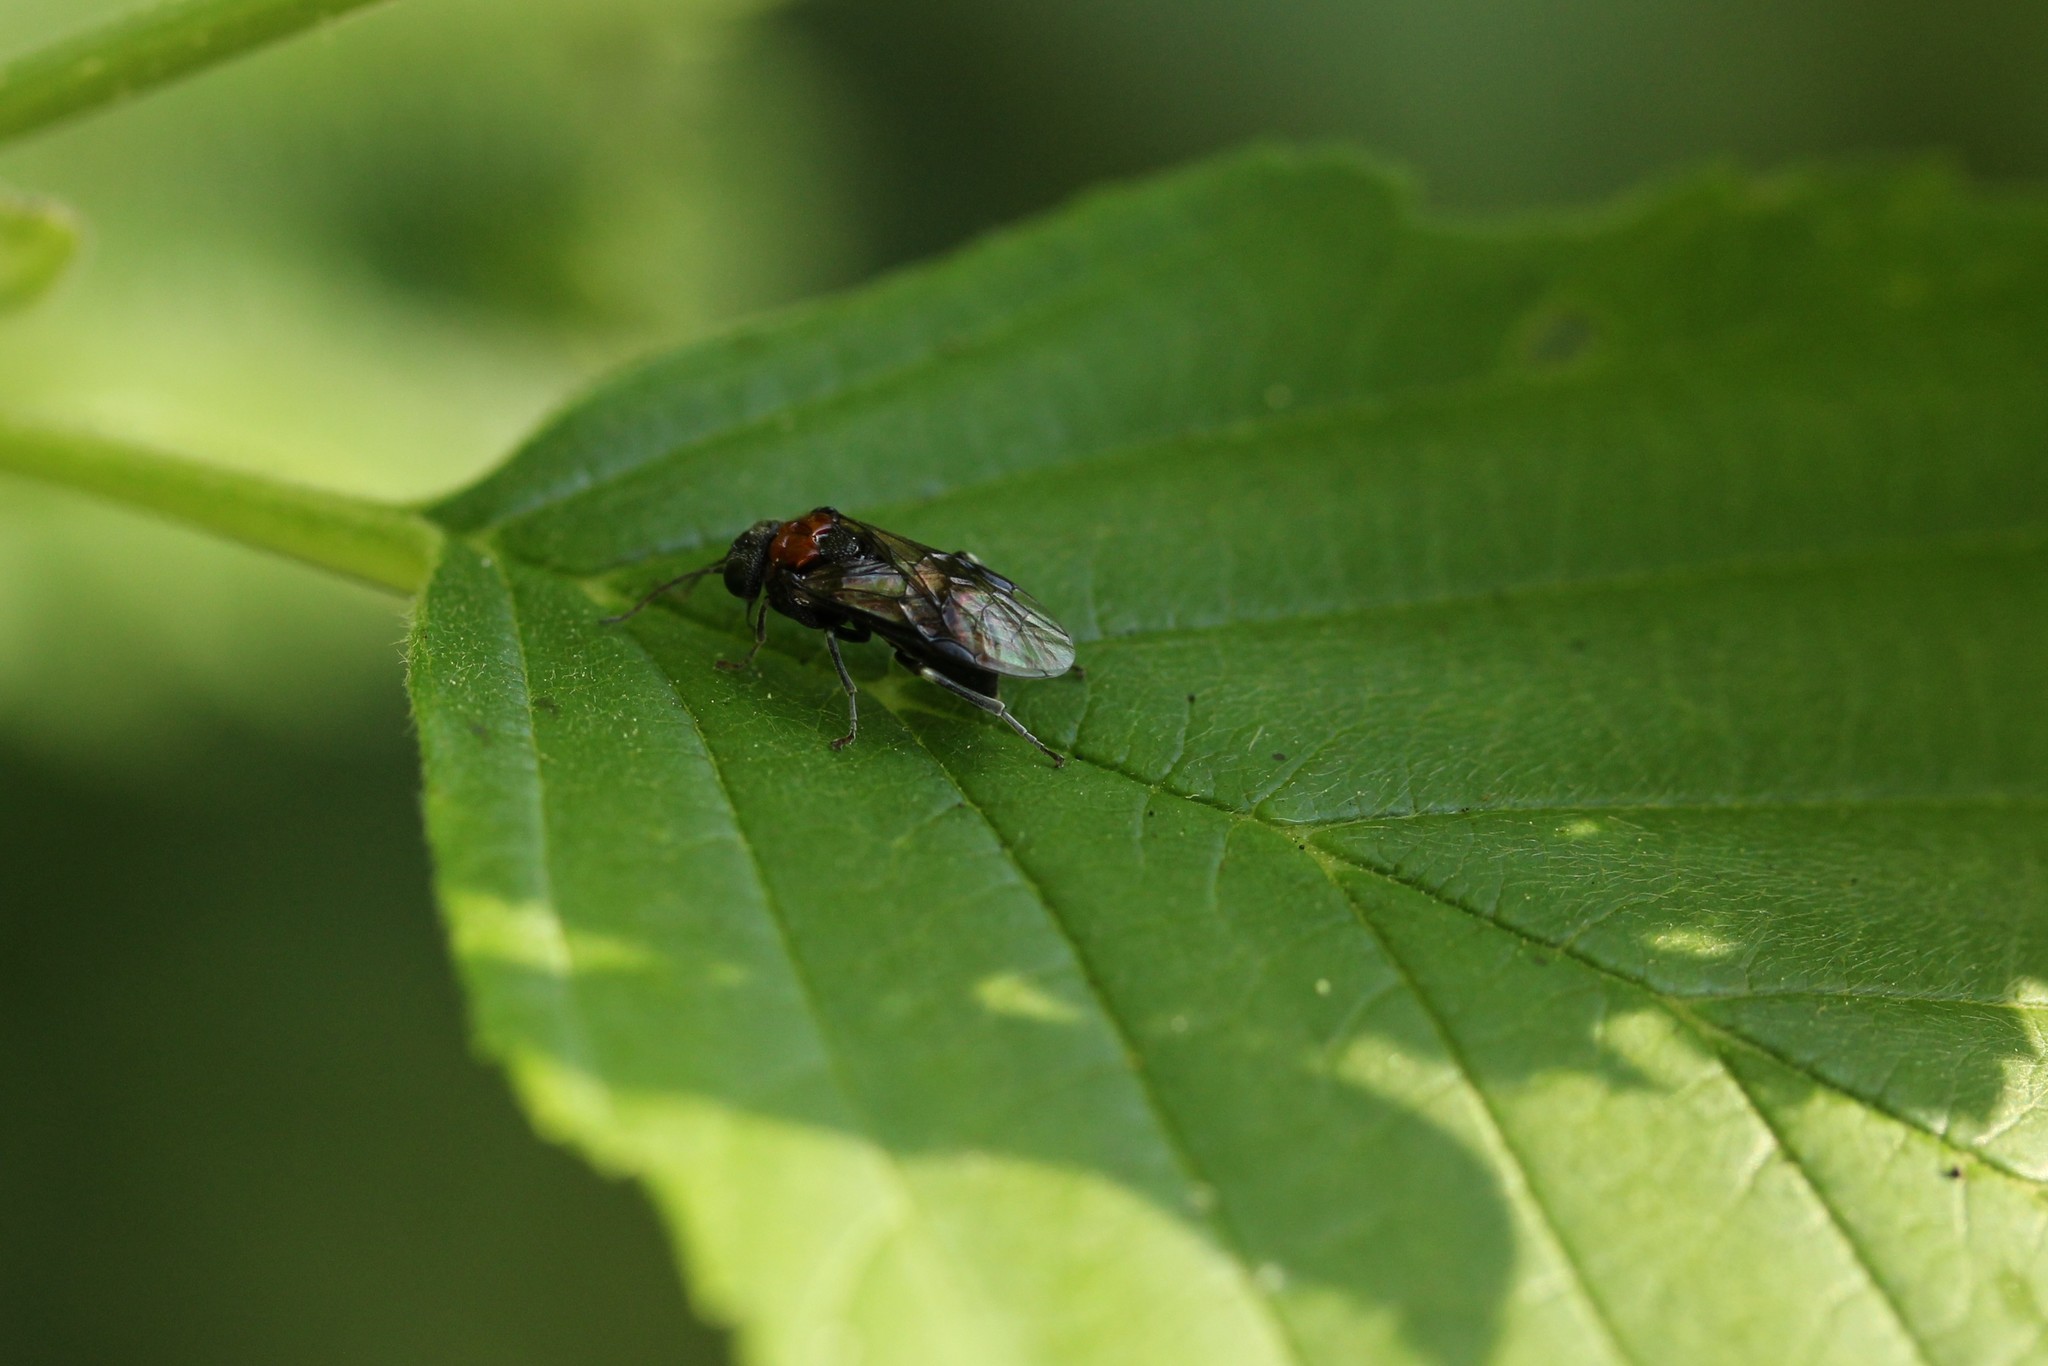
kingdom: Animalia
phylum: Arthropoda
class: Insecta
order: Hymenoptera
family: Tenthredinidae
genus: Eriocampa
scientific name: Eriocampa ovata
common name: Alder wooly sawfly
